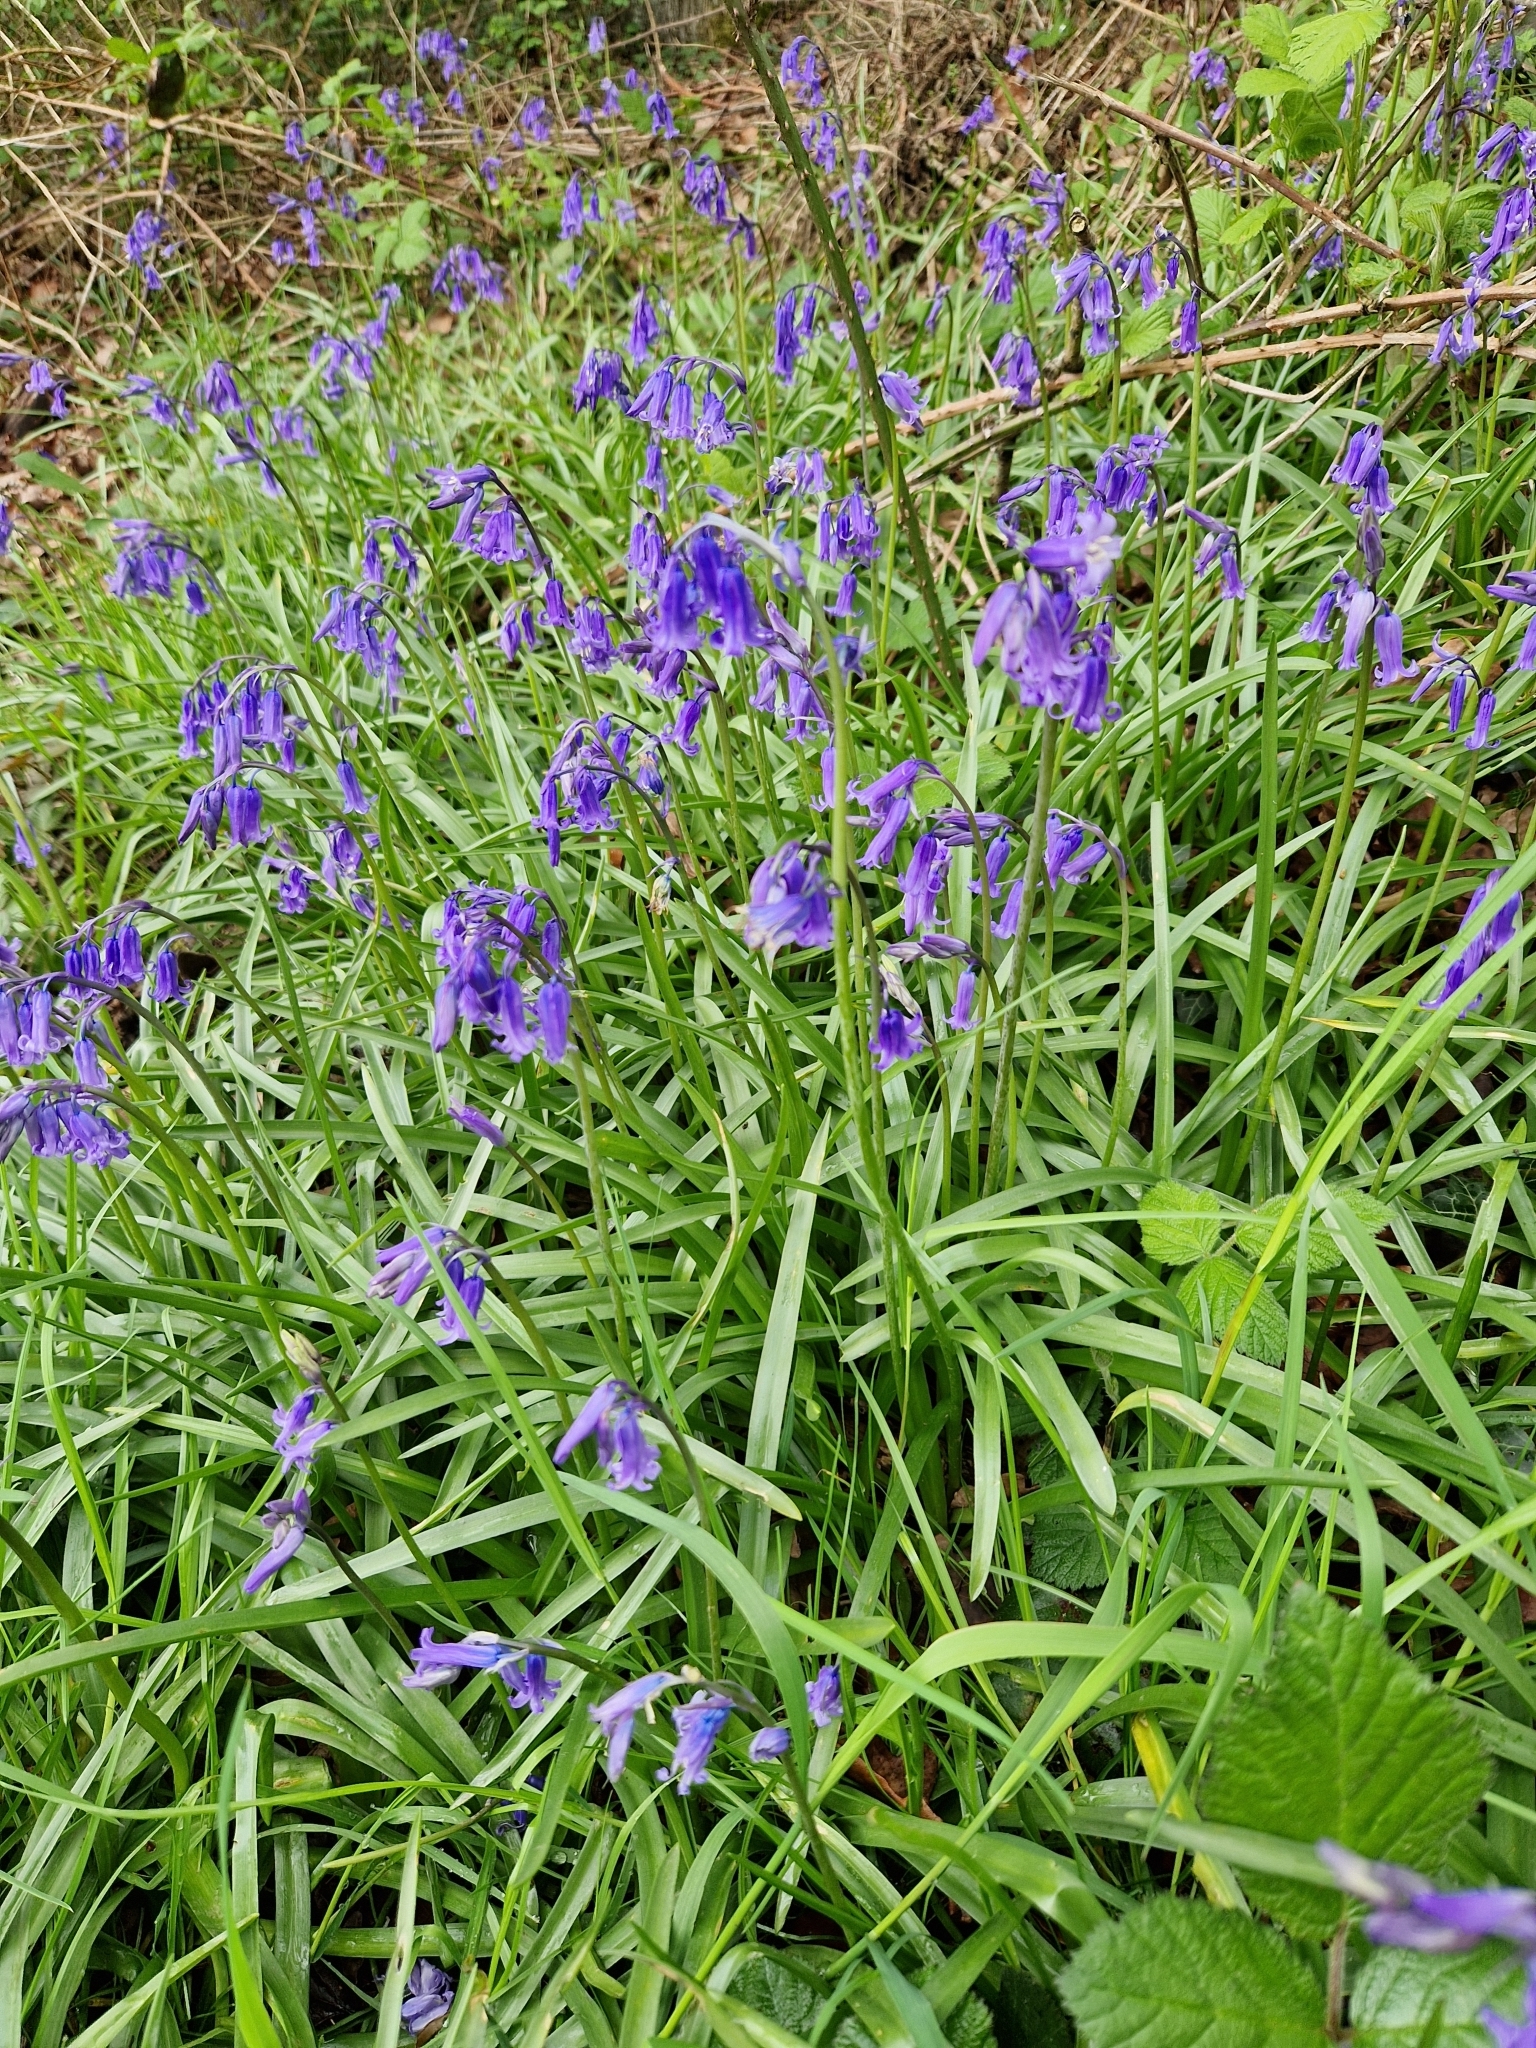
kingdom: Plantae
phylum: Tracheophyta
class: Liliopsida
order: Asparagales
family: Asparagaceae
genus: Hyacinthoides
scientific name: Hyacinthoides non-scripta
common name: Bluebell
